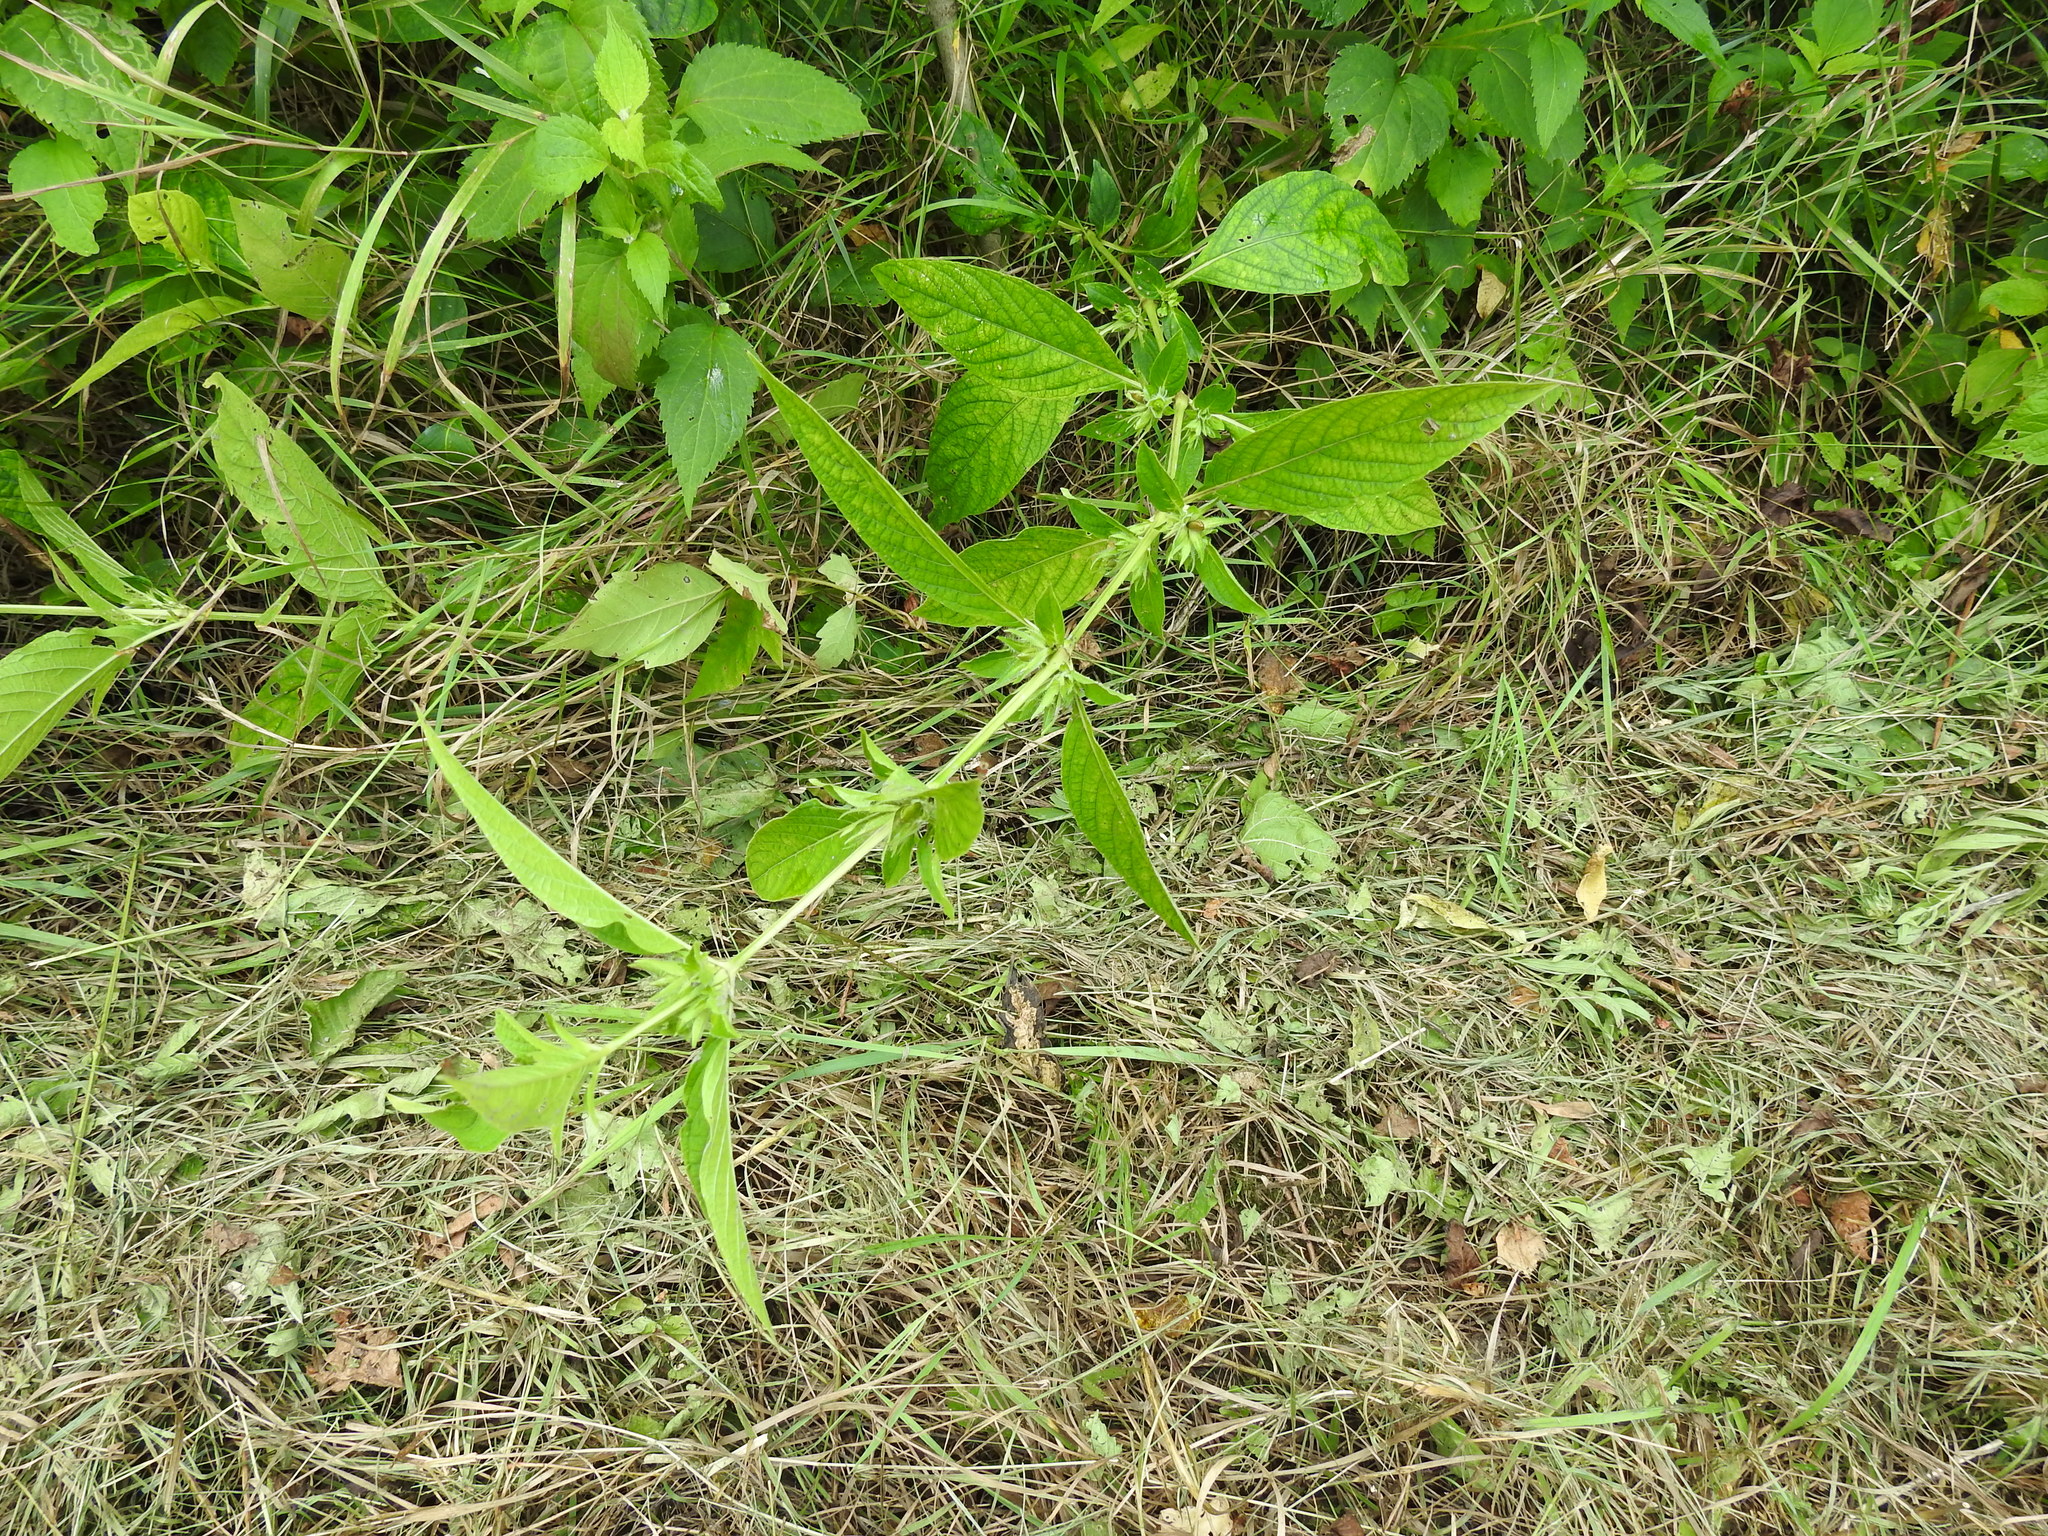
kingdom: Plantae
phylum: Tracheophyta
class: Magnoliopsida
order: Lamiales
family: Acanthaceae
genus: Ruellia
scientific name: Ruellia strepens
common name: Limestone wild petunia
